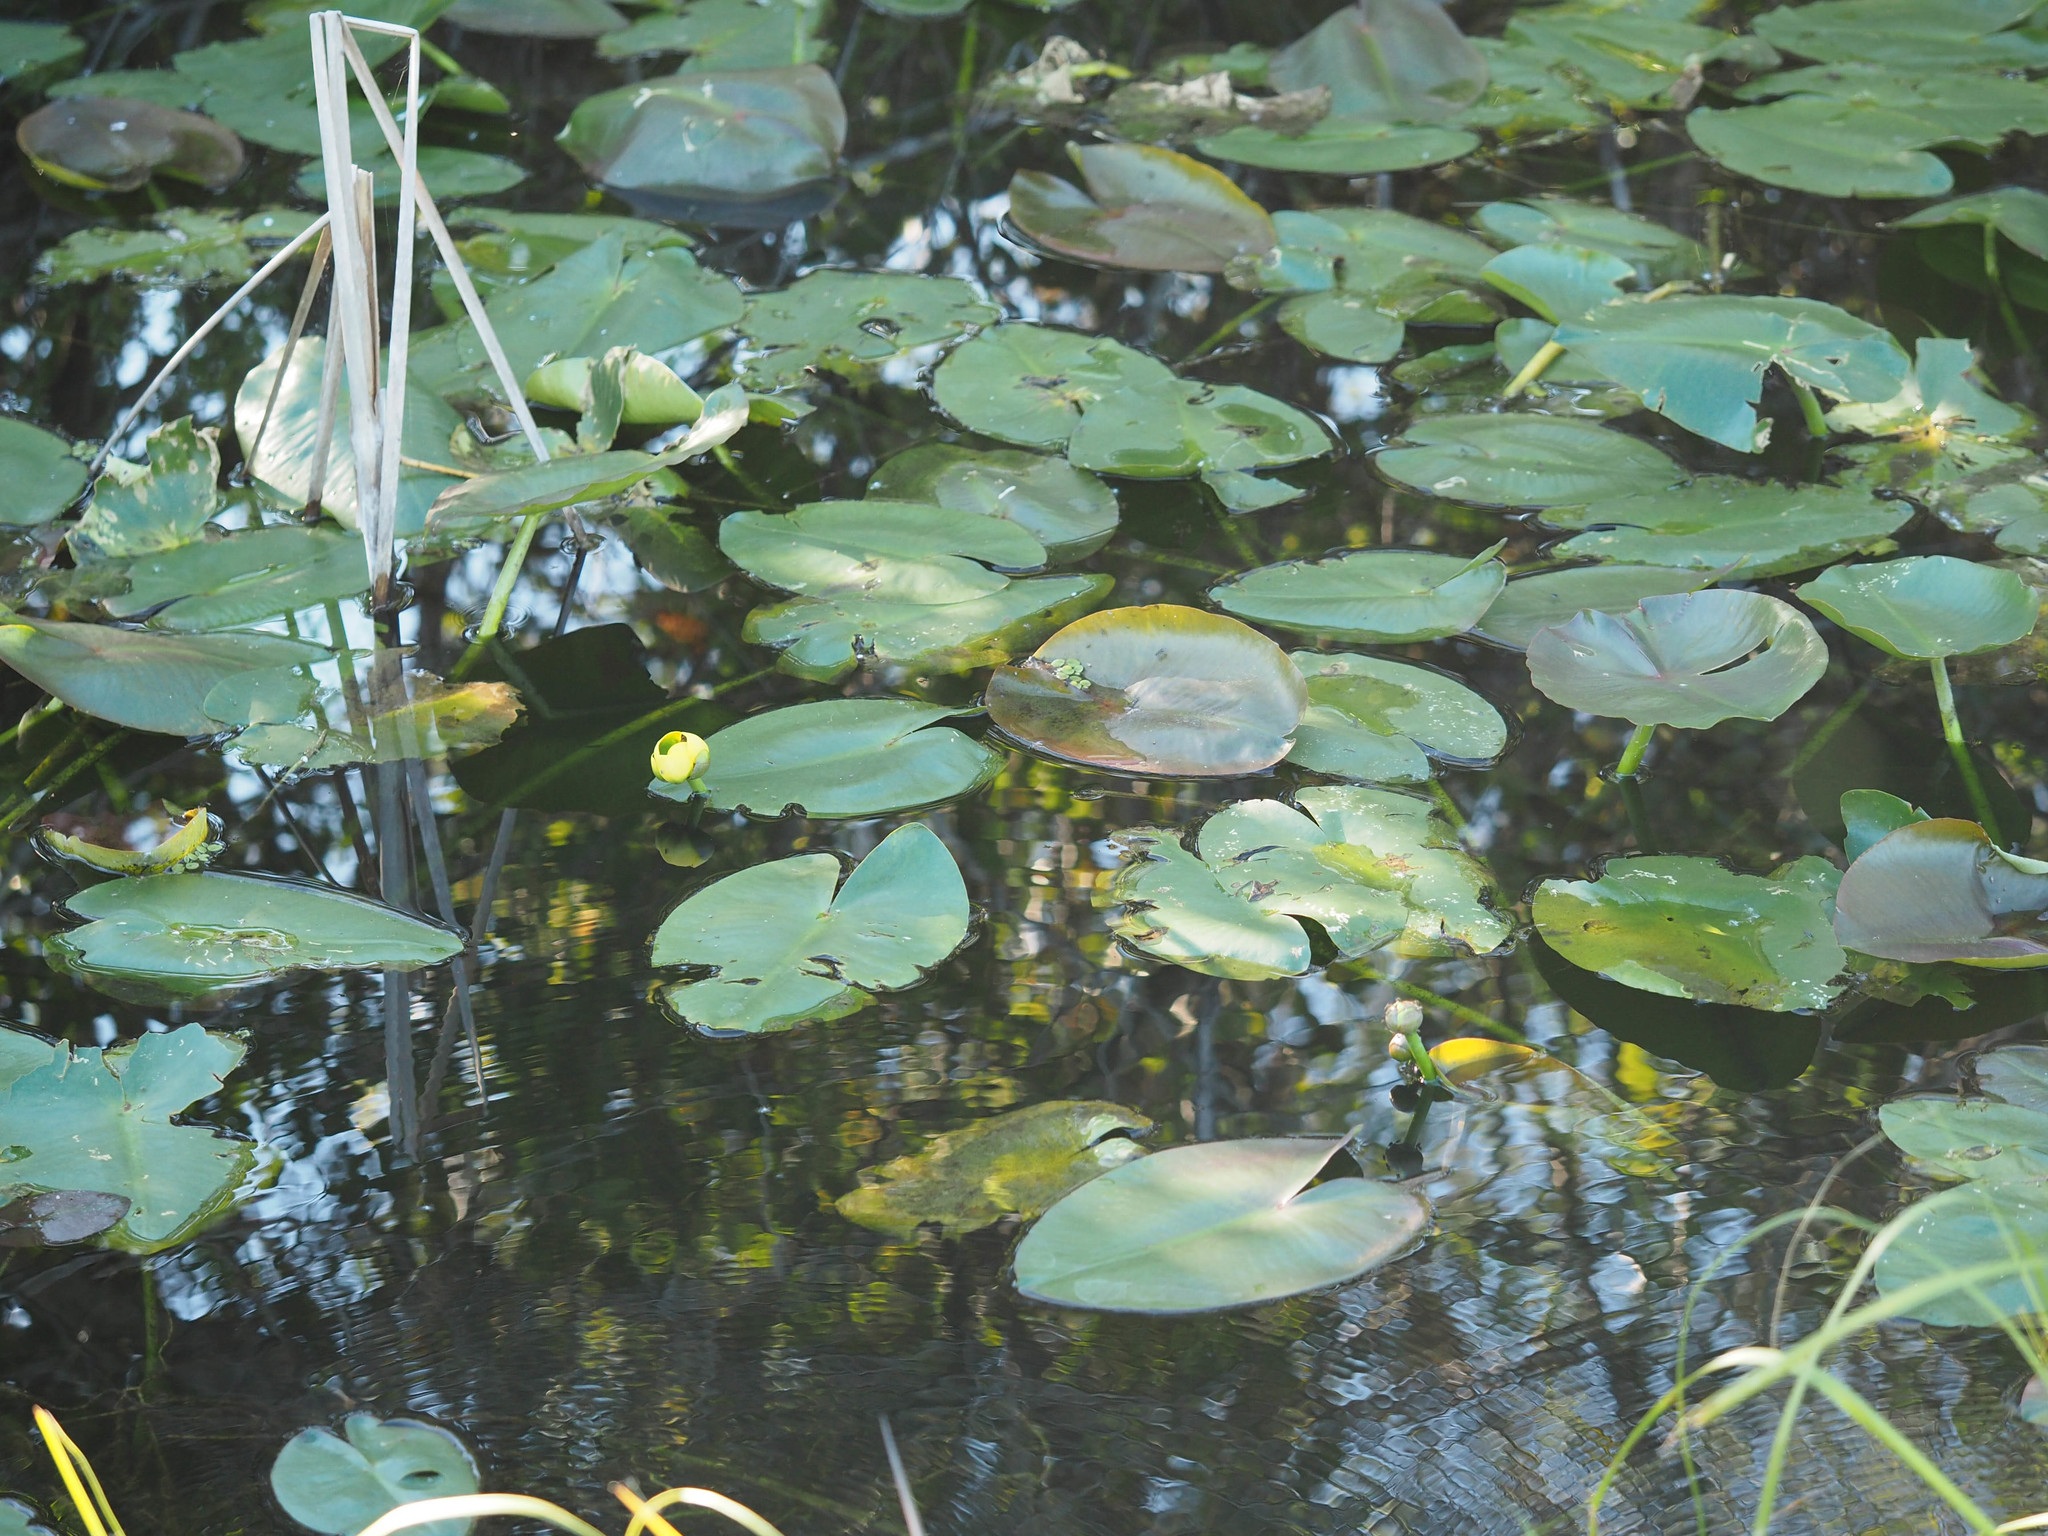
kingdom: Plantae
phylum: Tracheophyta
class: Magnoliopsida
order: Nymphaeales
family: Nymphaeaceae
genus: Nuphar
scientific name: Nuphar advena
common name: Spatter-dock
